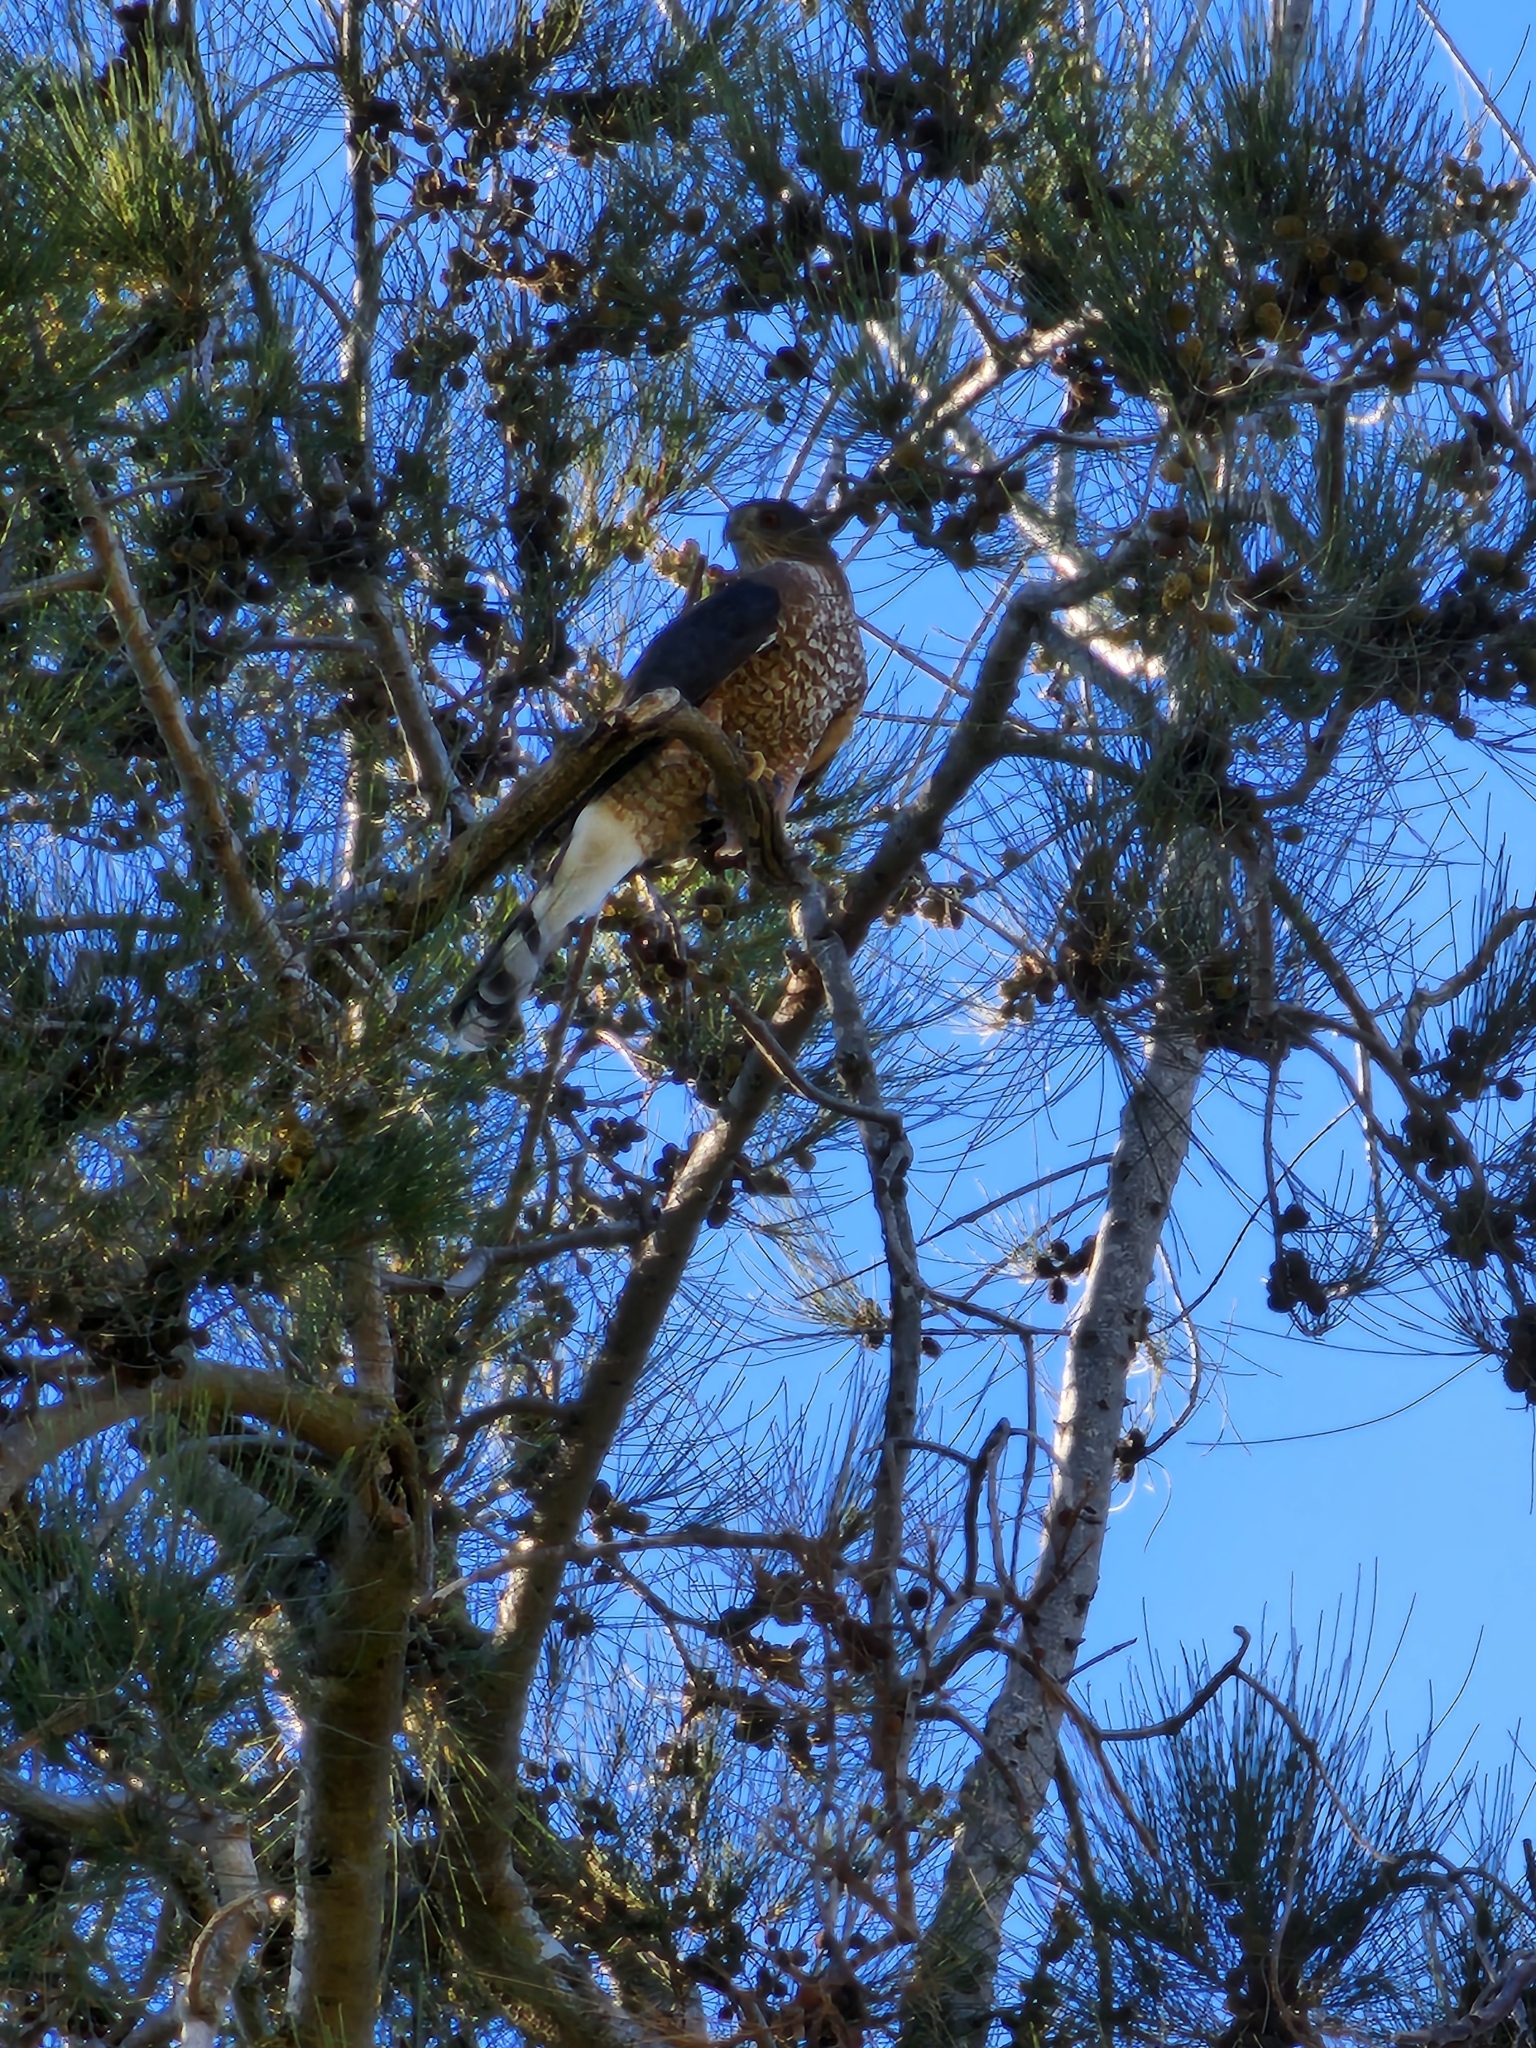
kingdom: Animalia
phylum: Chordata
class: Aves
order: Accipitriformes
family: Accipitridae
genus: Accipiter
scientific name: Accipiter cooperii
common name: Cooper's hawk
